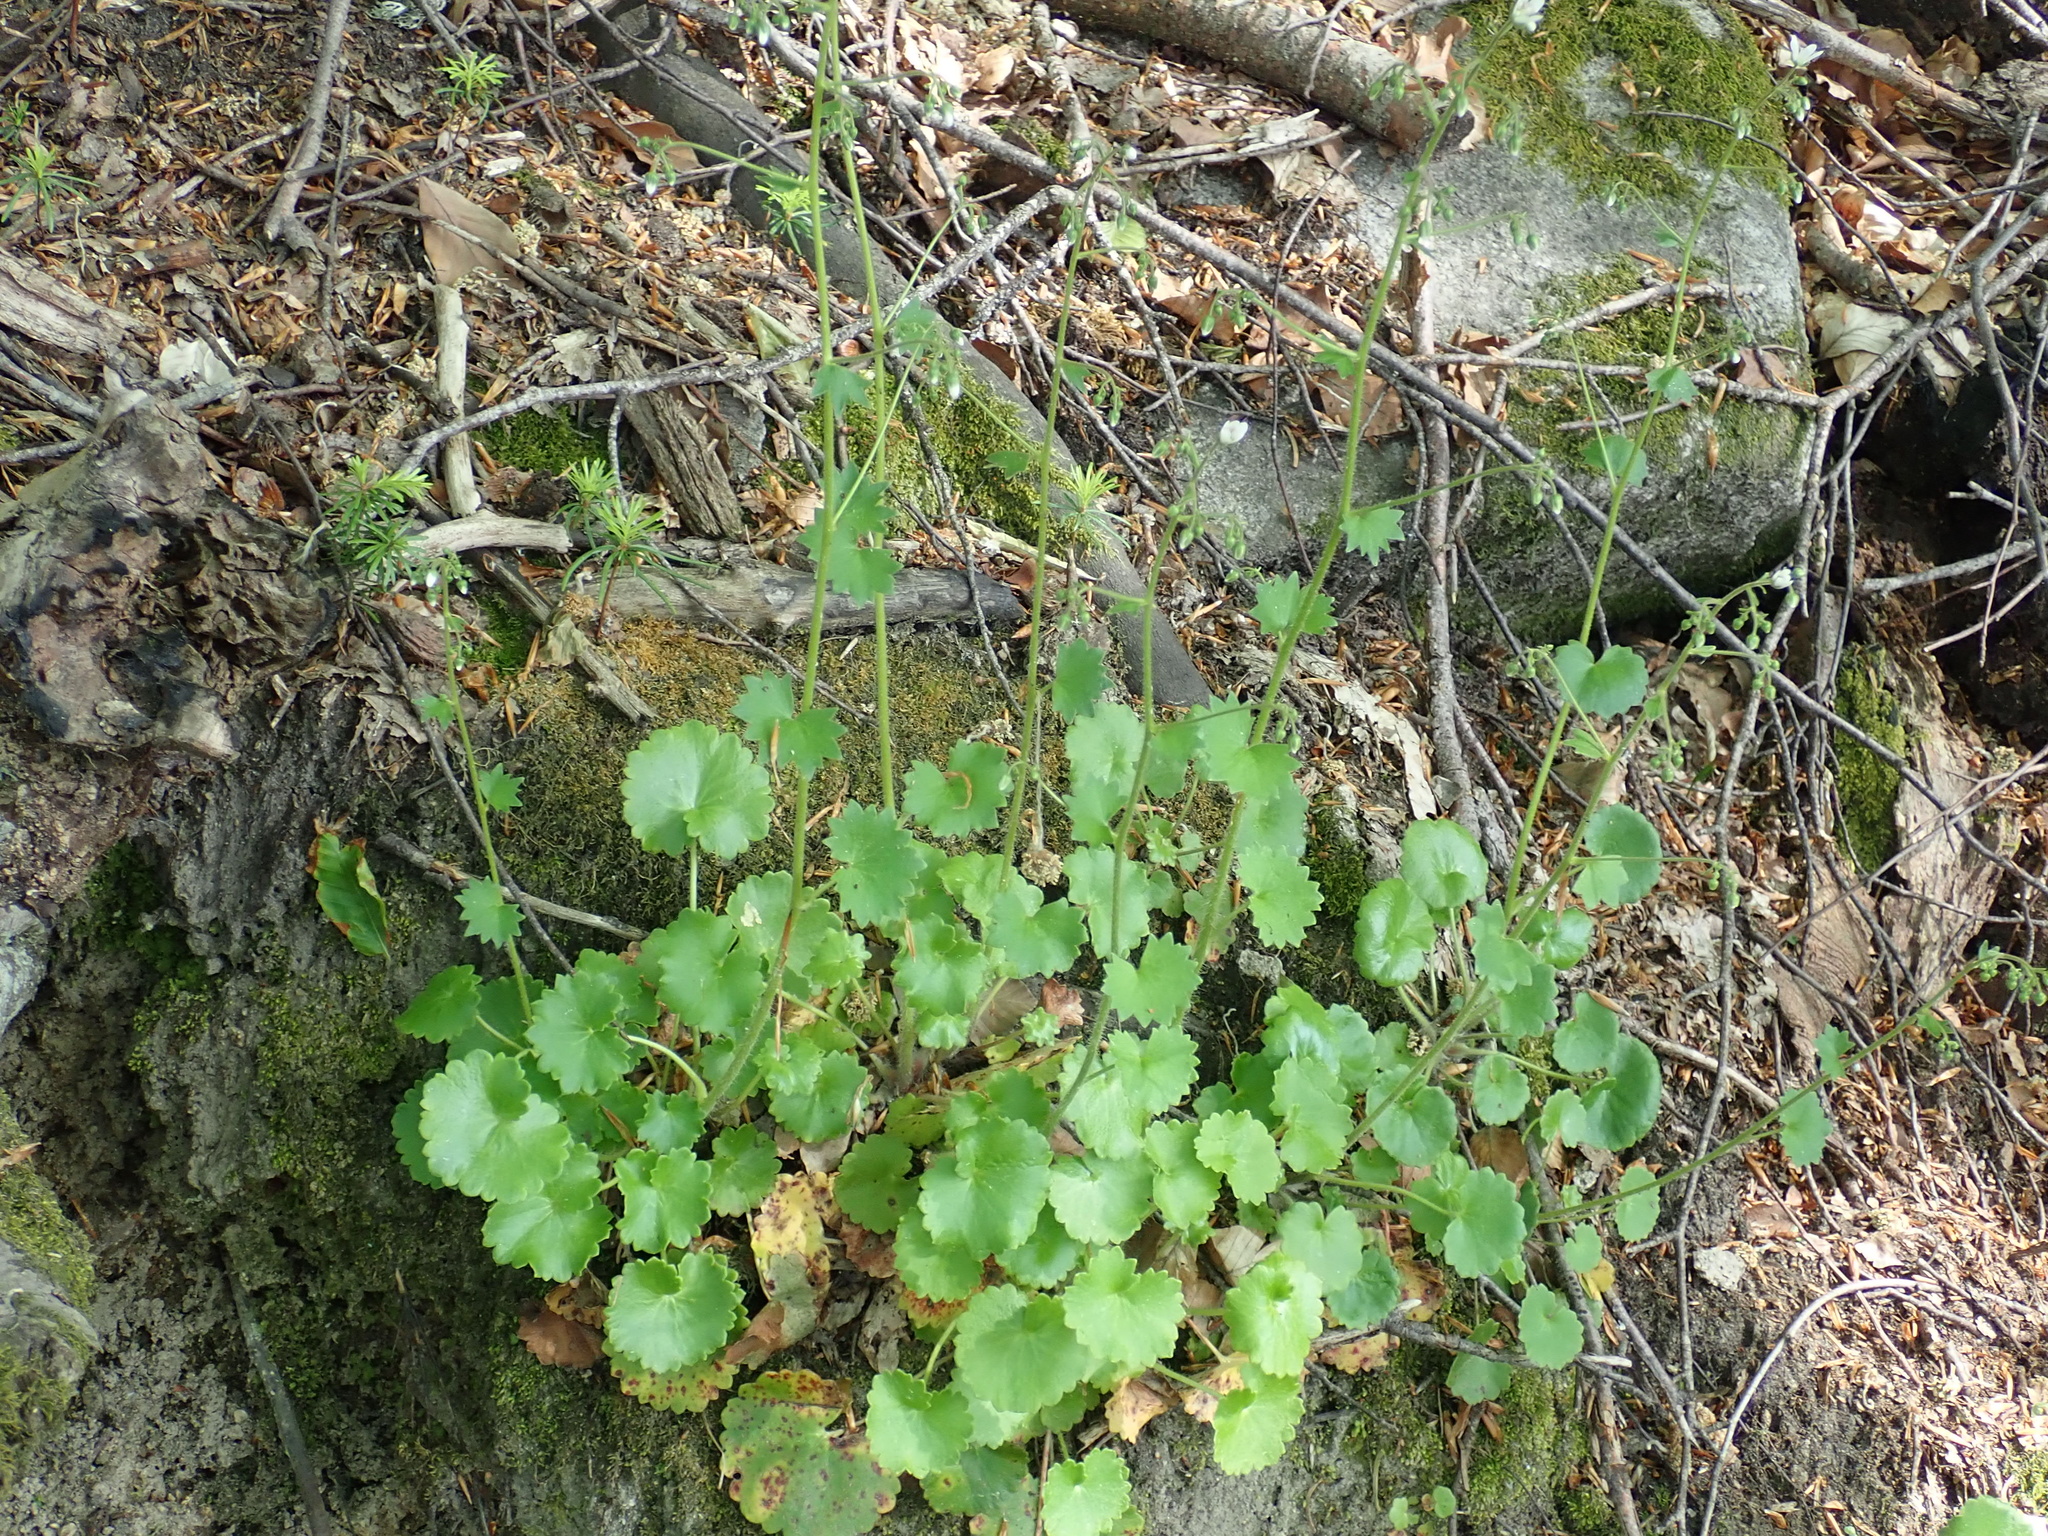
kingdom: Plantae
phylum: Tracheophyta
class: Magnoliopsida
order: Saxifragales
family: Saxifragaceae
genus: Saxifraga
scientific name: Saxifraga rotundifolia
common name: Round-leaved saxifrage
